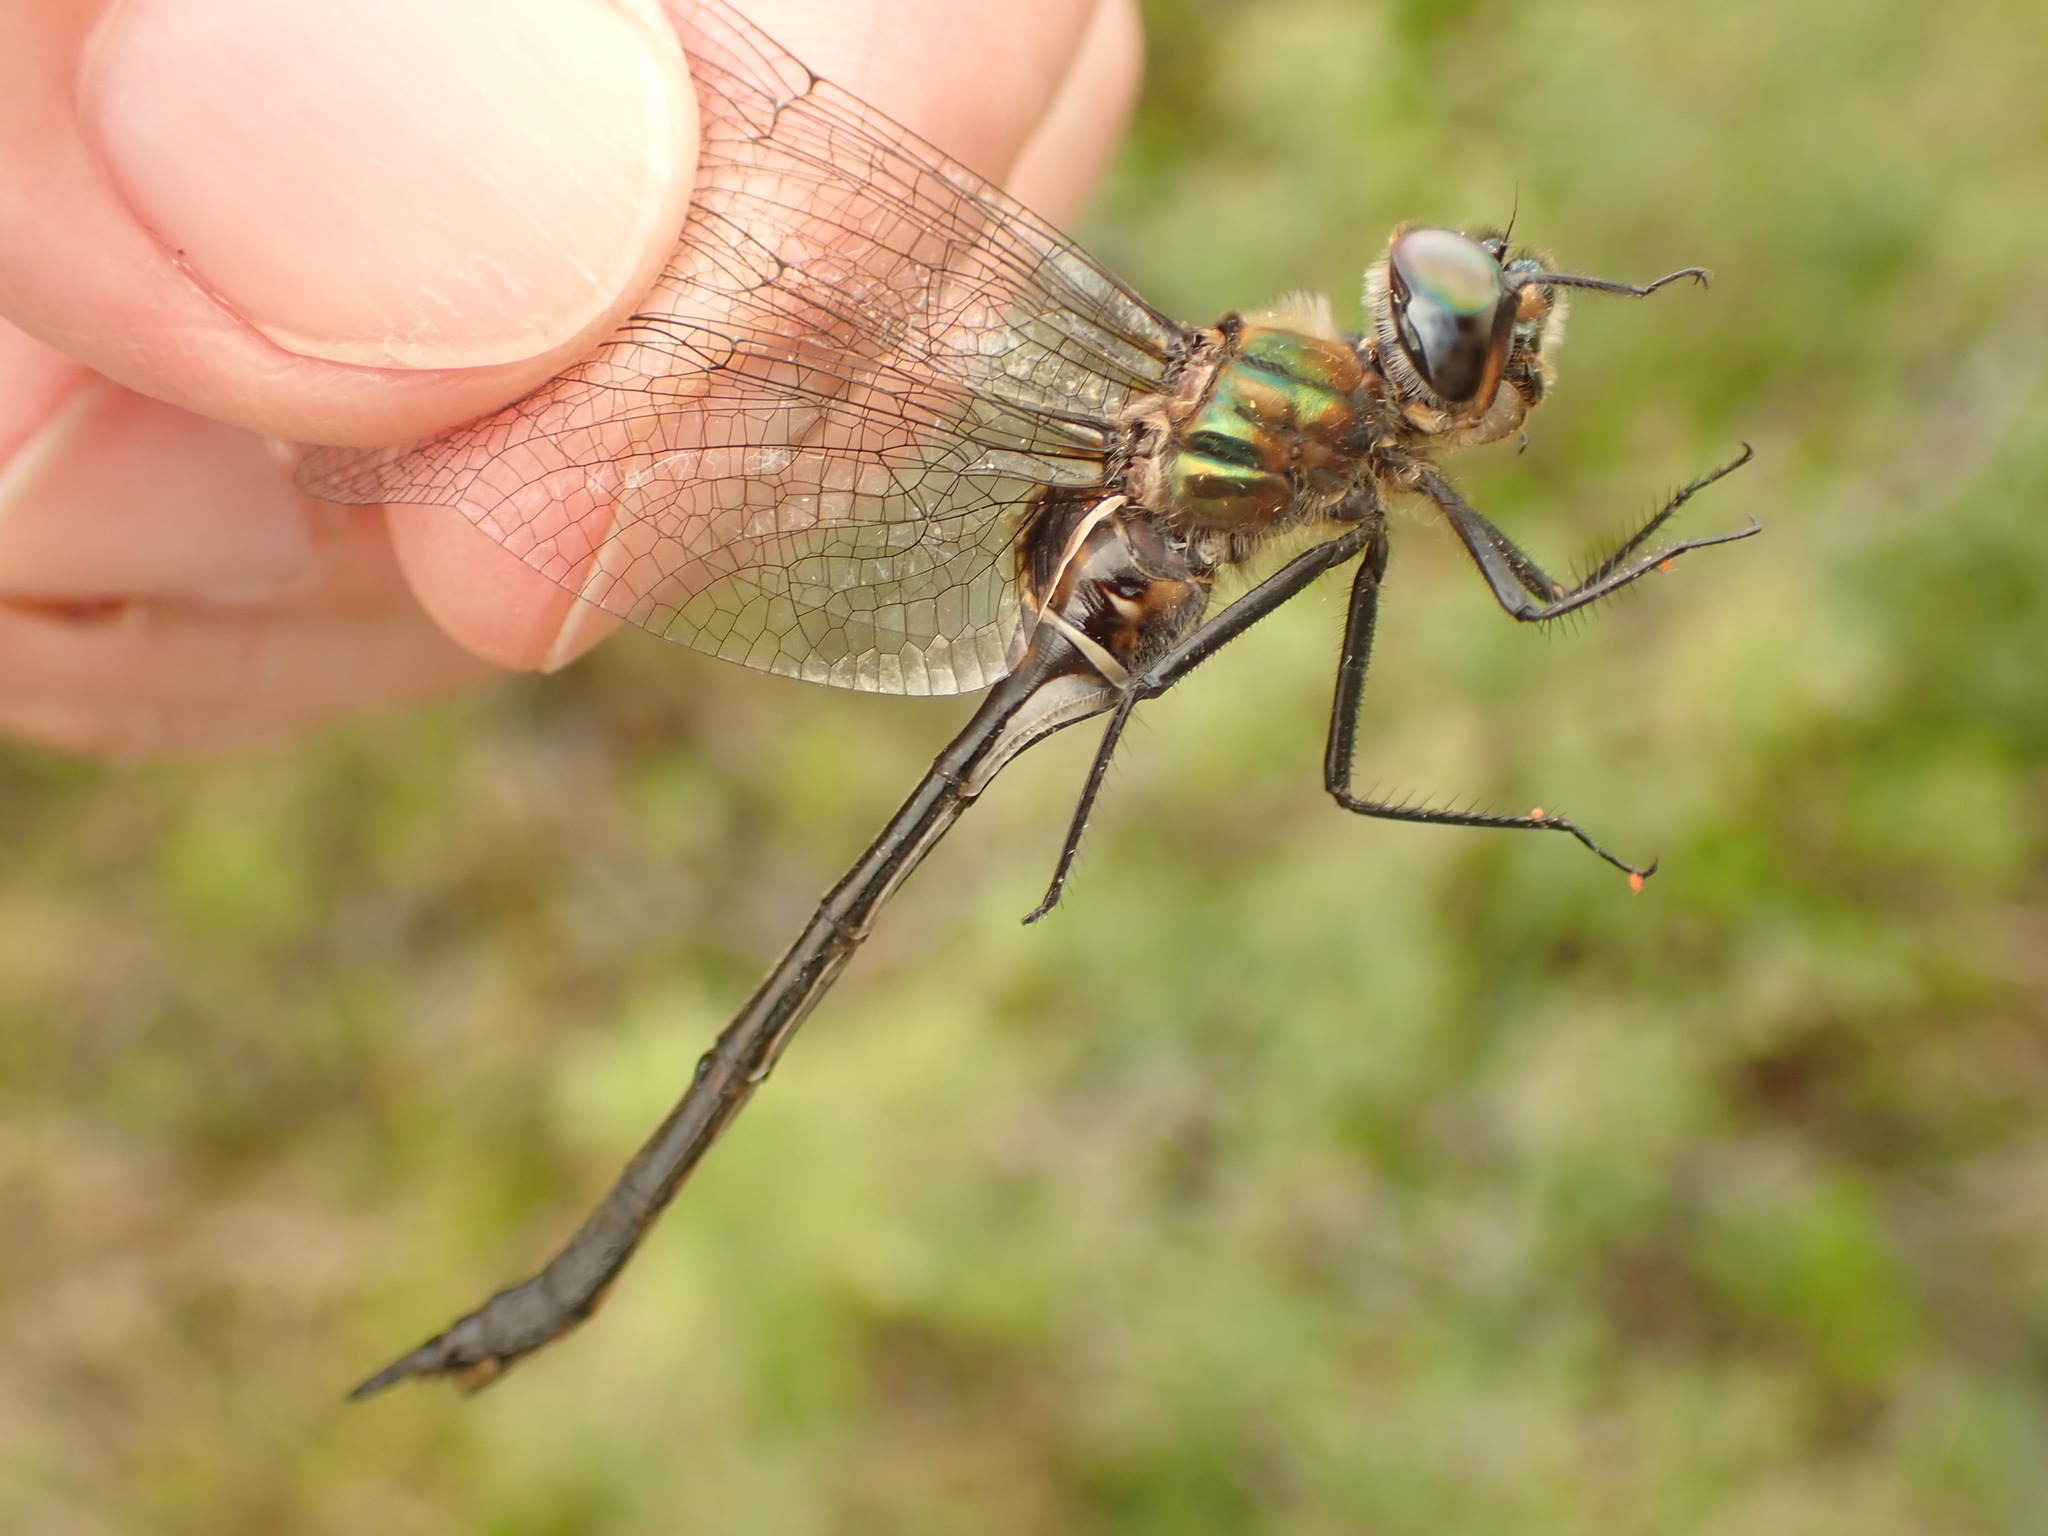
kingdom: Animalia
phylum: Arthropoda
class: Insecta
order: Odonata
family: Corduliidae
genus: Somatochlora
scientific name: Somatochlora franklini
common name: Delicate emerald
